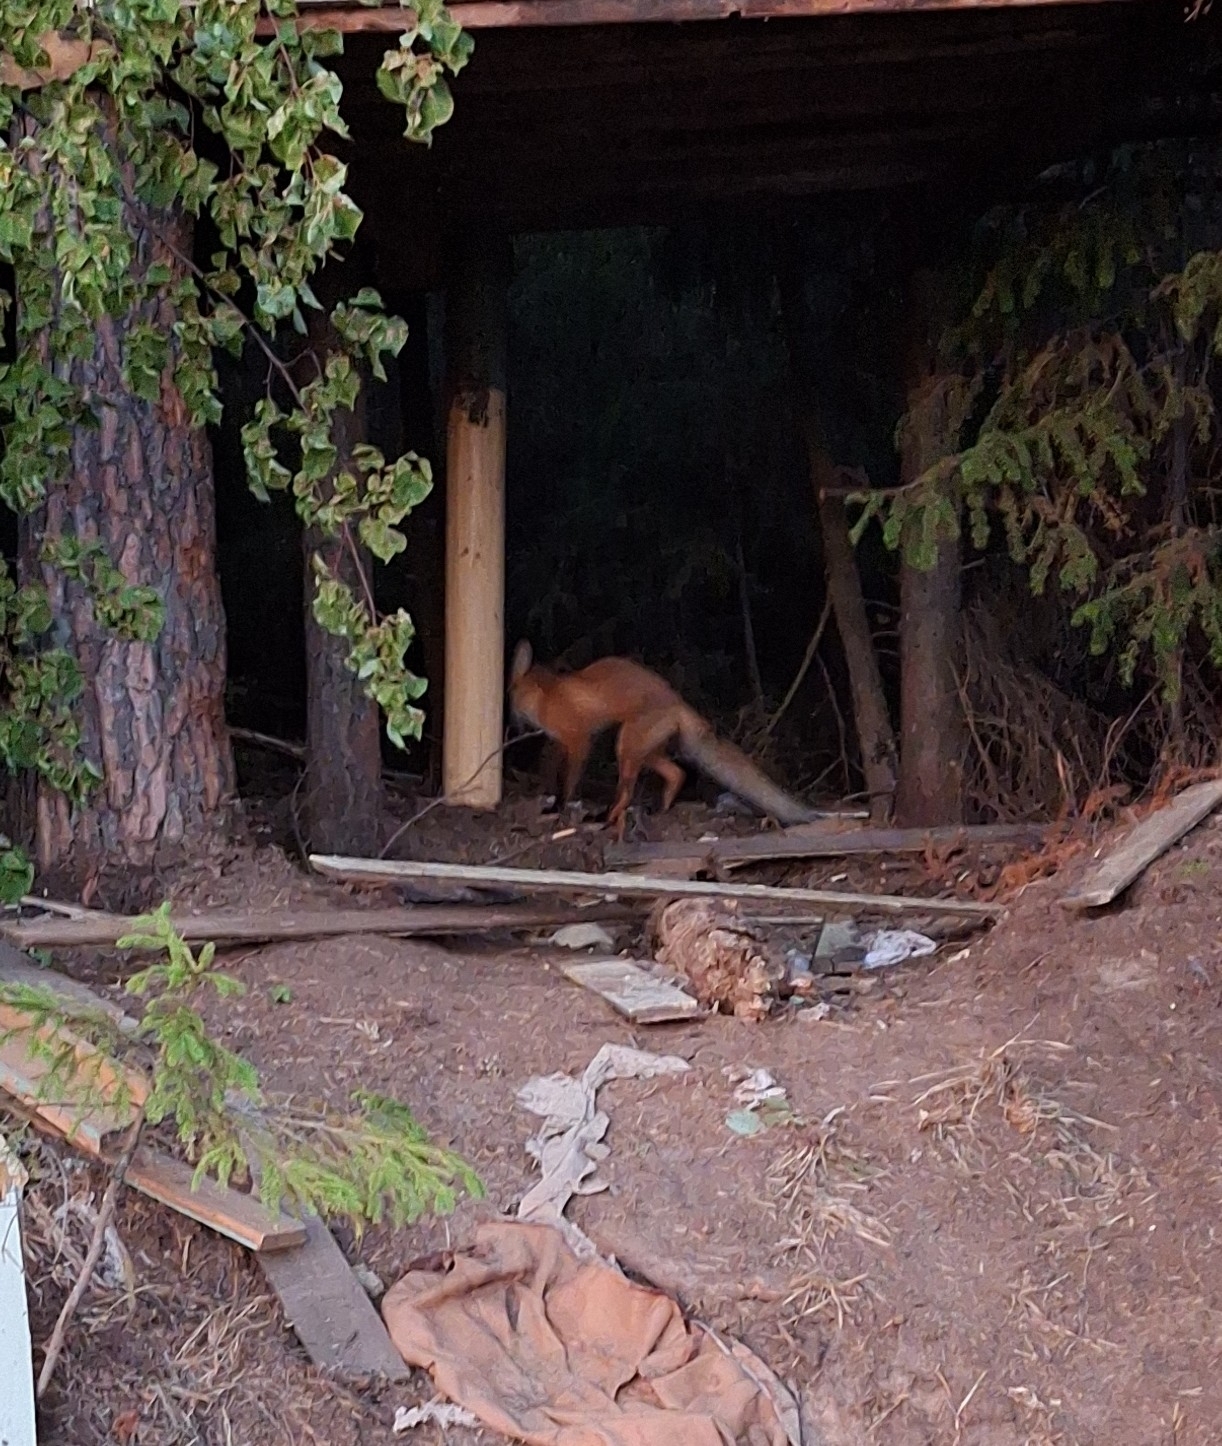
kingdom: Animalia
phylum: Chordata
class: Mammalia
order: Carnivora
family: Canidae
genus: Vulpes
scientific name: Vulpes vulpes
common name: Red fox
